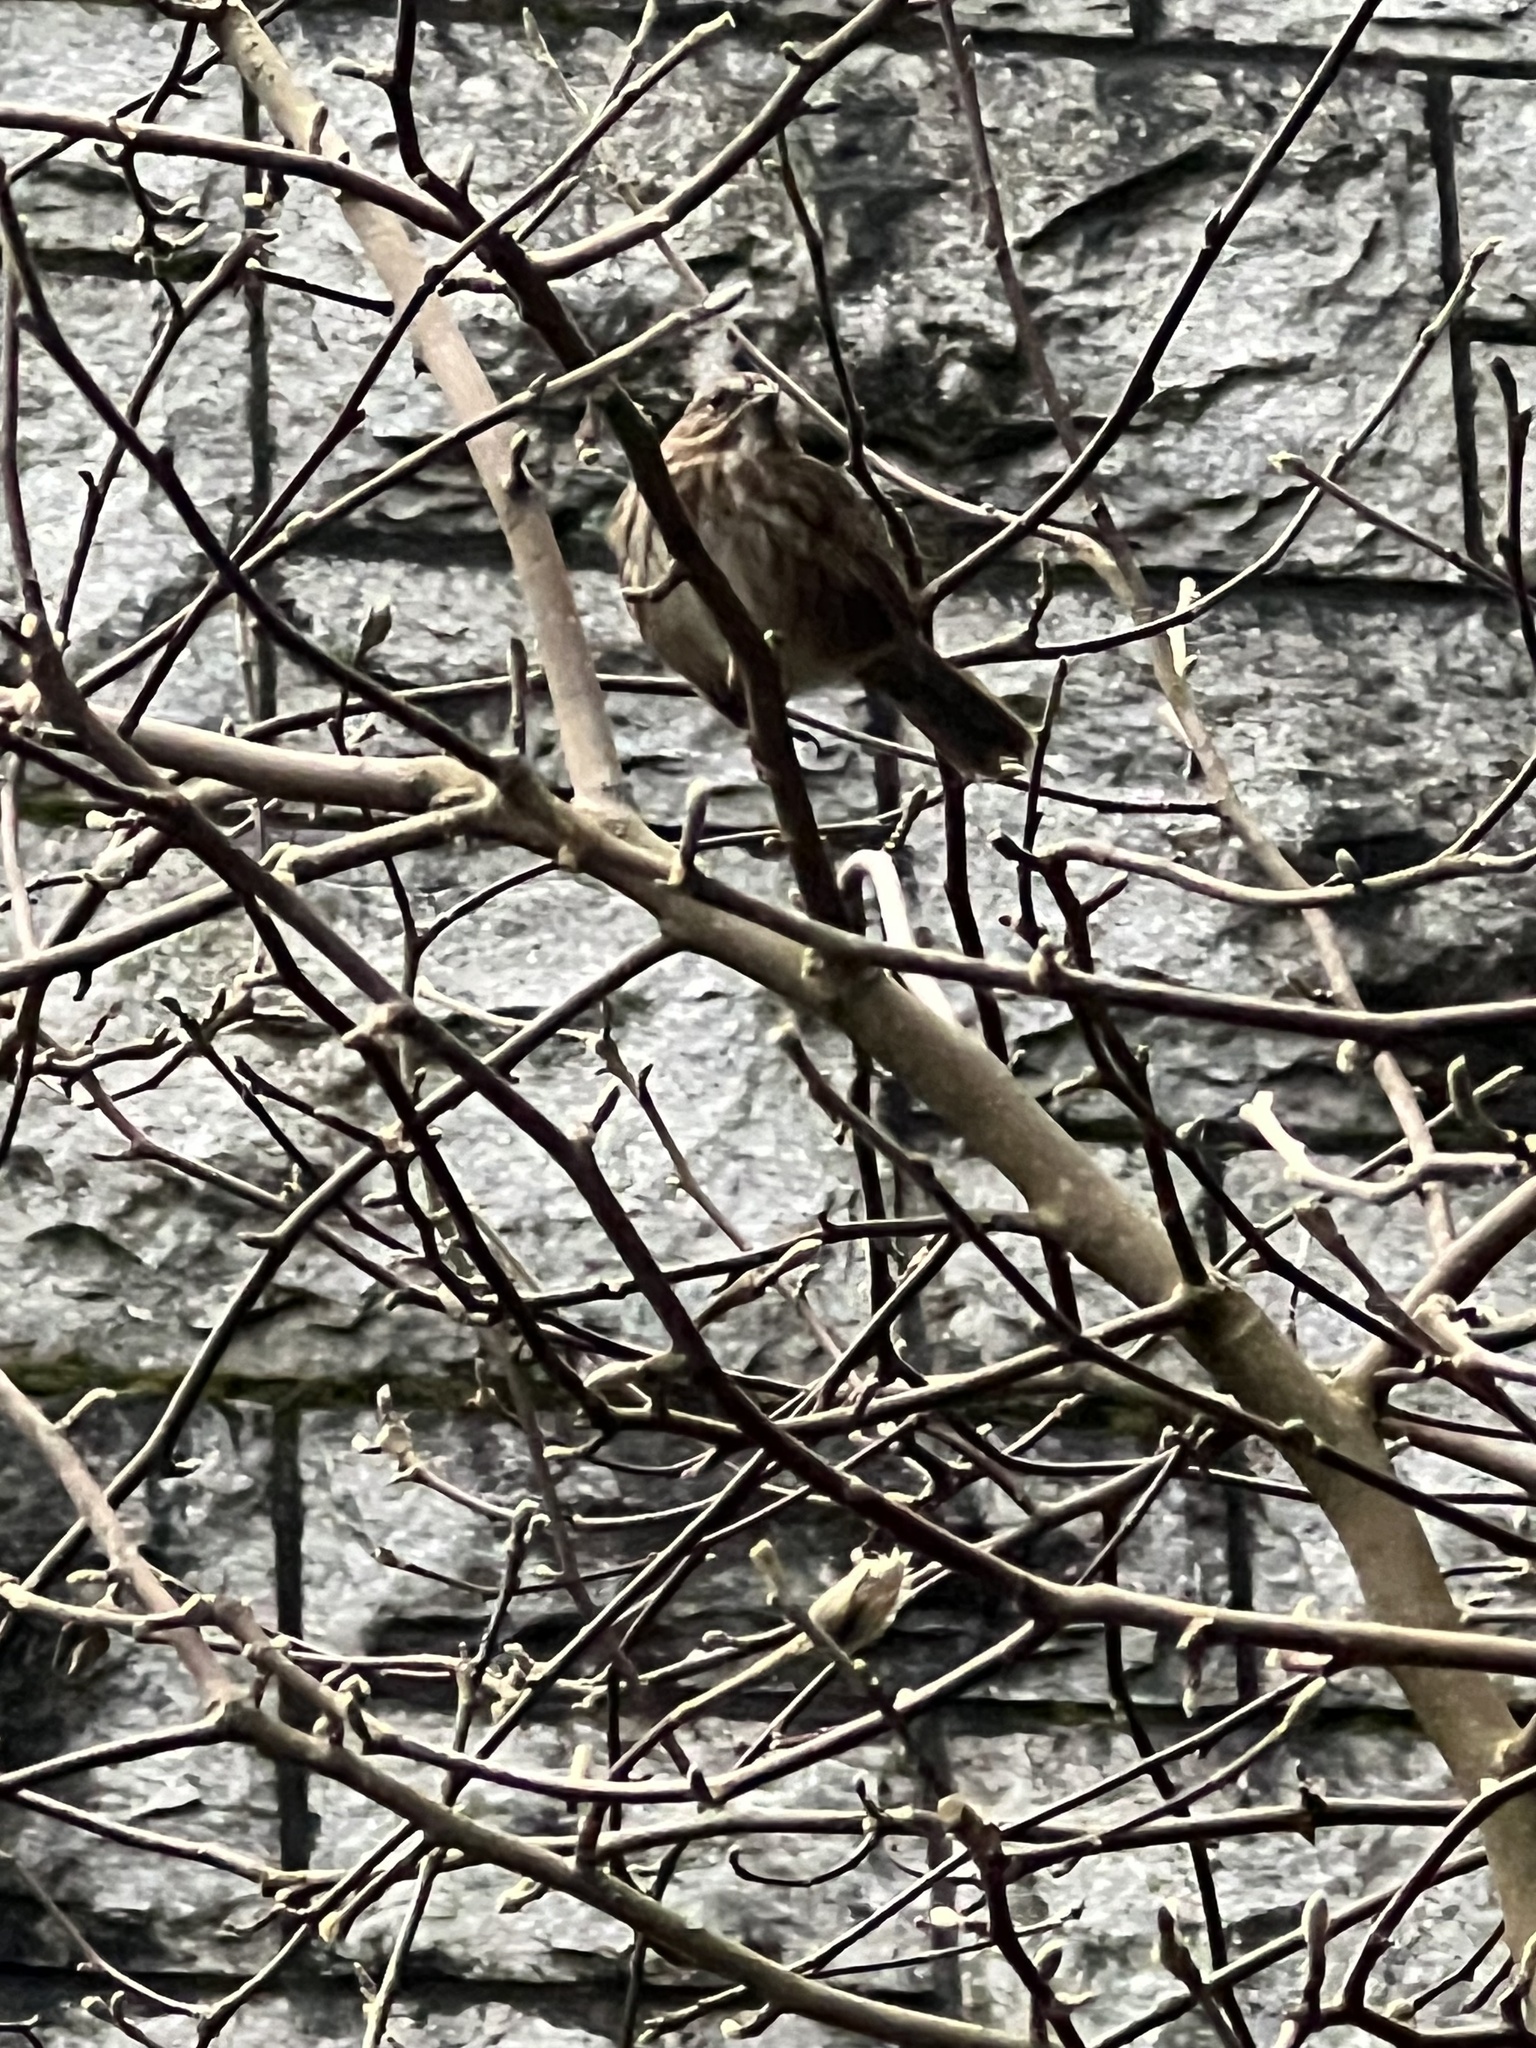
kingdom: Animalia
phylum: Chordata
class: Aves
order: Passeriformes
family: Passerellidae
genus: Melospiza
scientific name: Melospiza melodia
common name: Song sparrow
